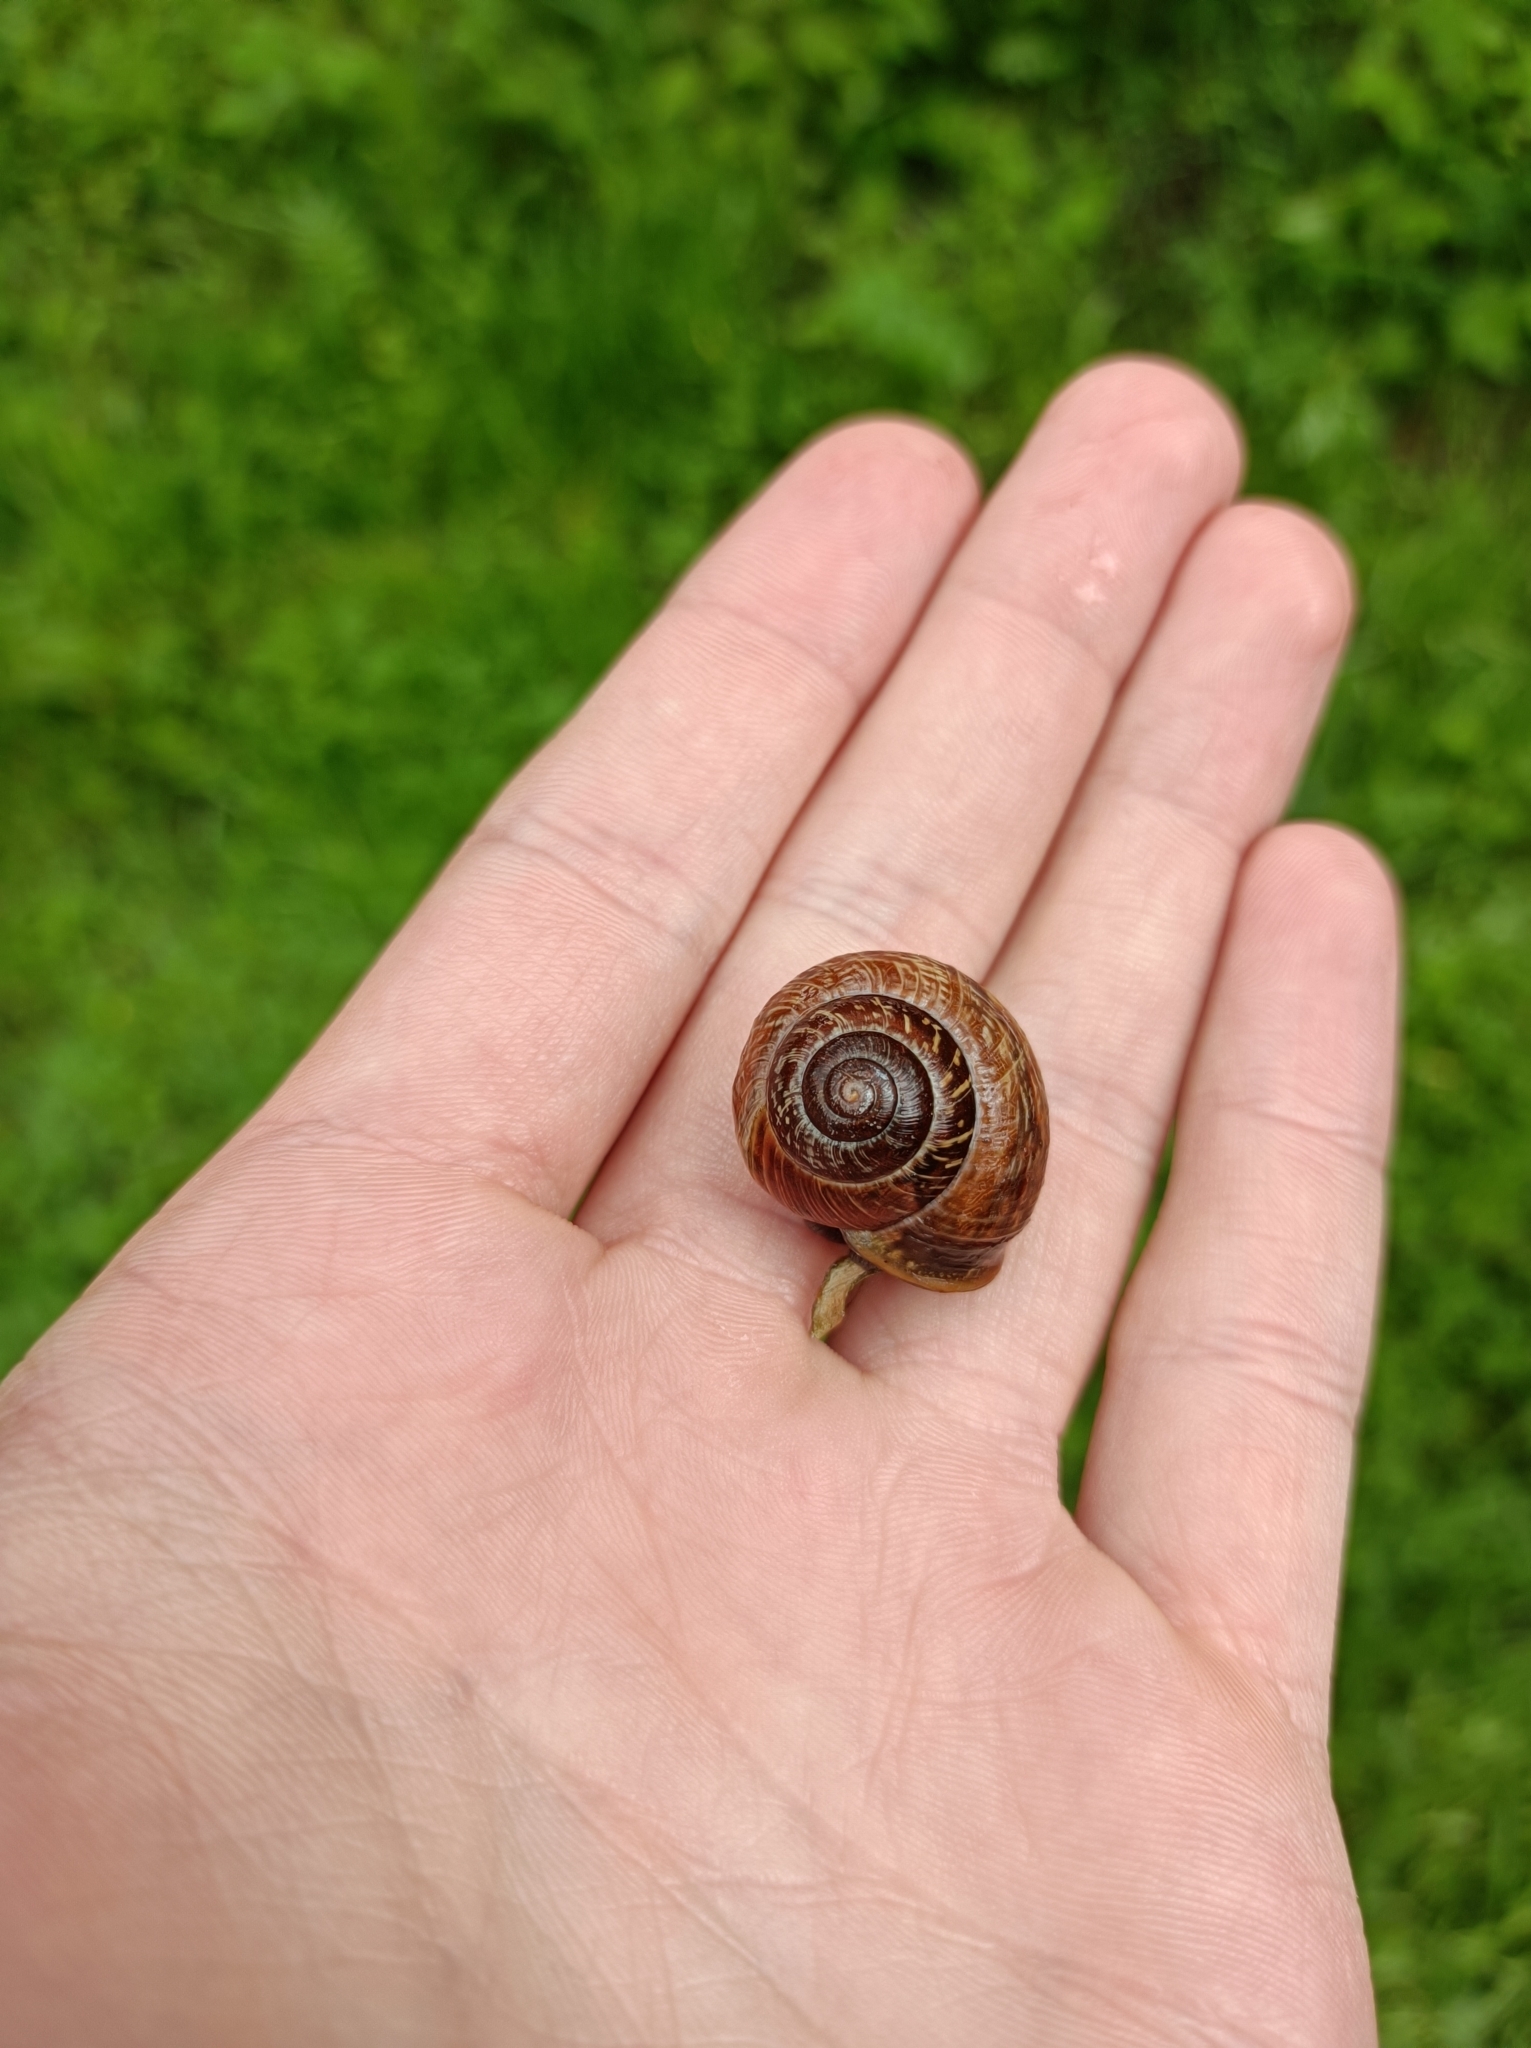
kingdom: Animalia
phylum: Mollusca
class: Gastropoda
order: Stylommatophora
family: Helicidae
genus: Arianta
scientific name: Arianta arbustorum
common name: Copse snail
